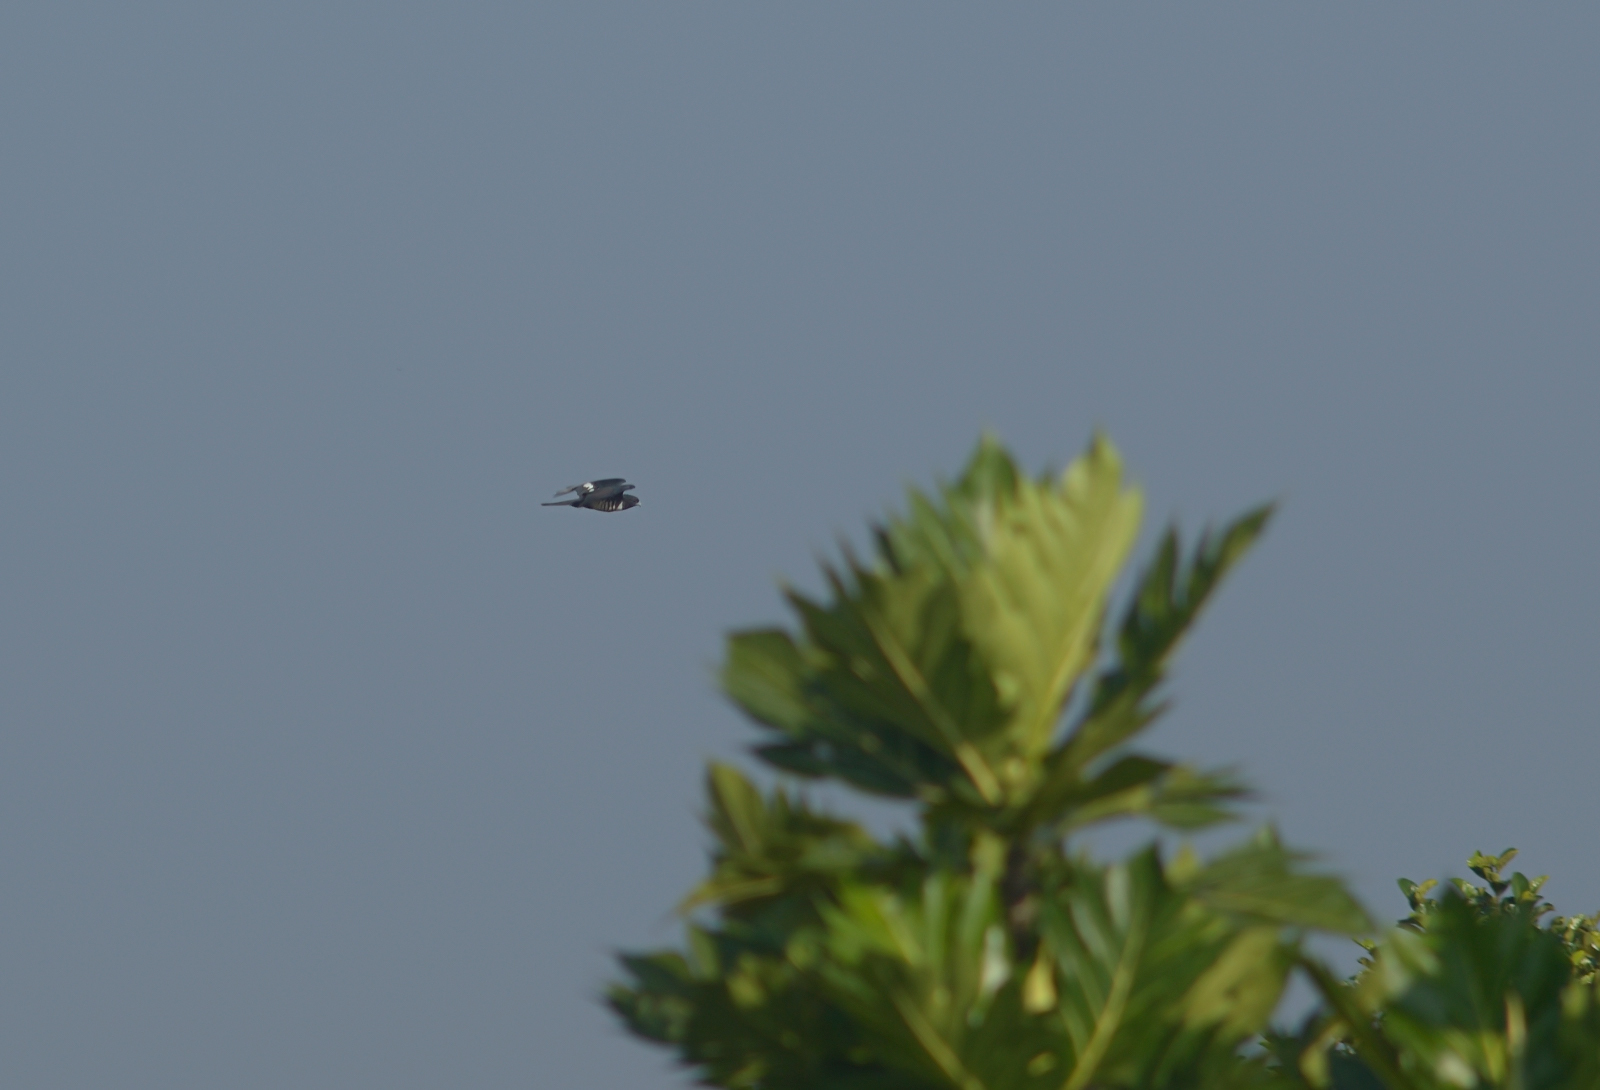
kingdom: Animalia
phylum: Chordata
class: Aves
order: Accipitriformes
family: Accipitridae
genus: Aviceda
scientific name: Aviceda leuphotes
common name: Black baza
